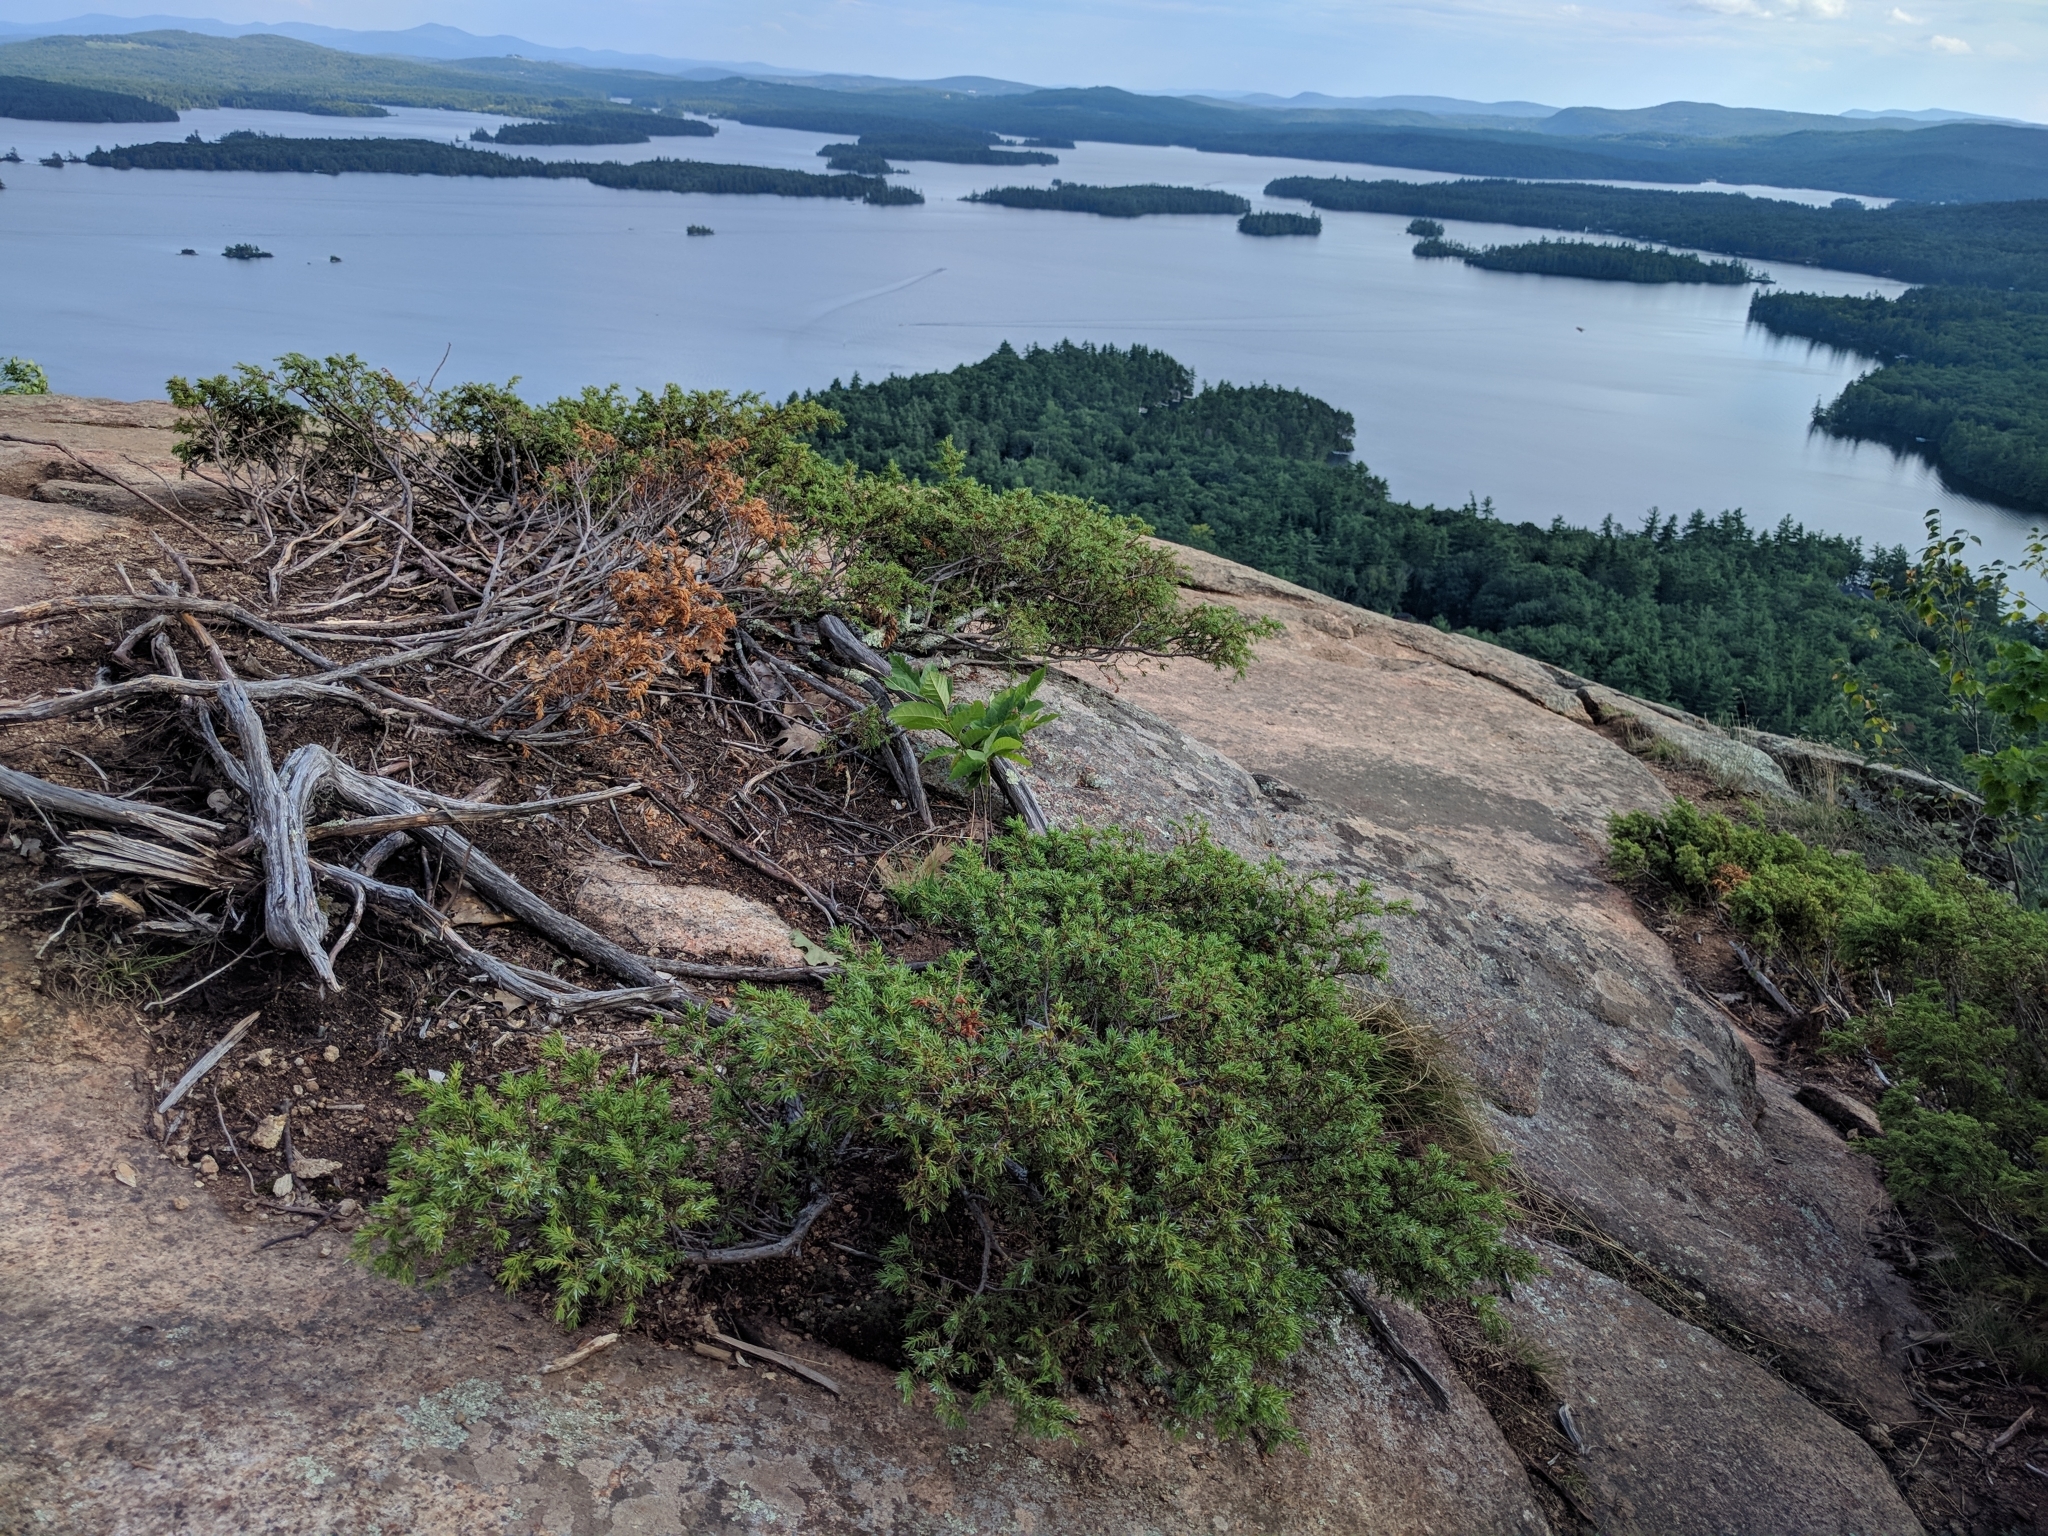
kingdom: Plantae
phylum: Tracheophyta
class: Pinopsida
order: Pinales
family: Cupressaceae
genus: Juniperus
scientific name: Juniperus communis
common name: Common juniper
